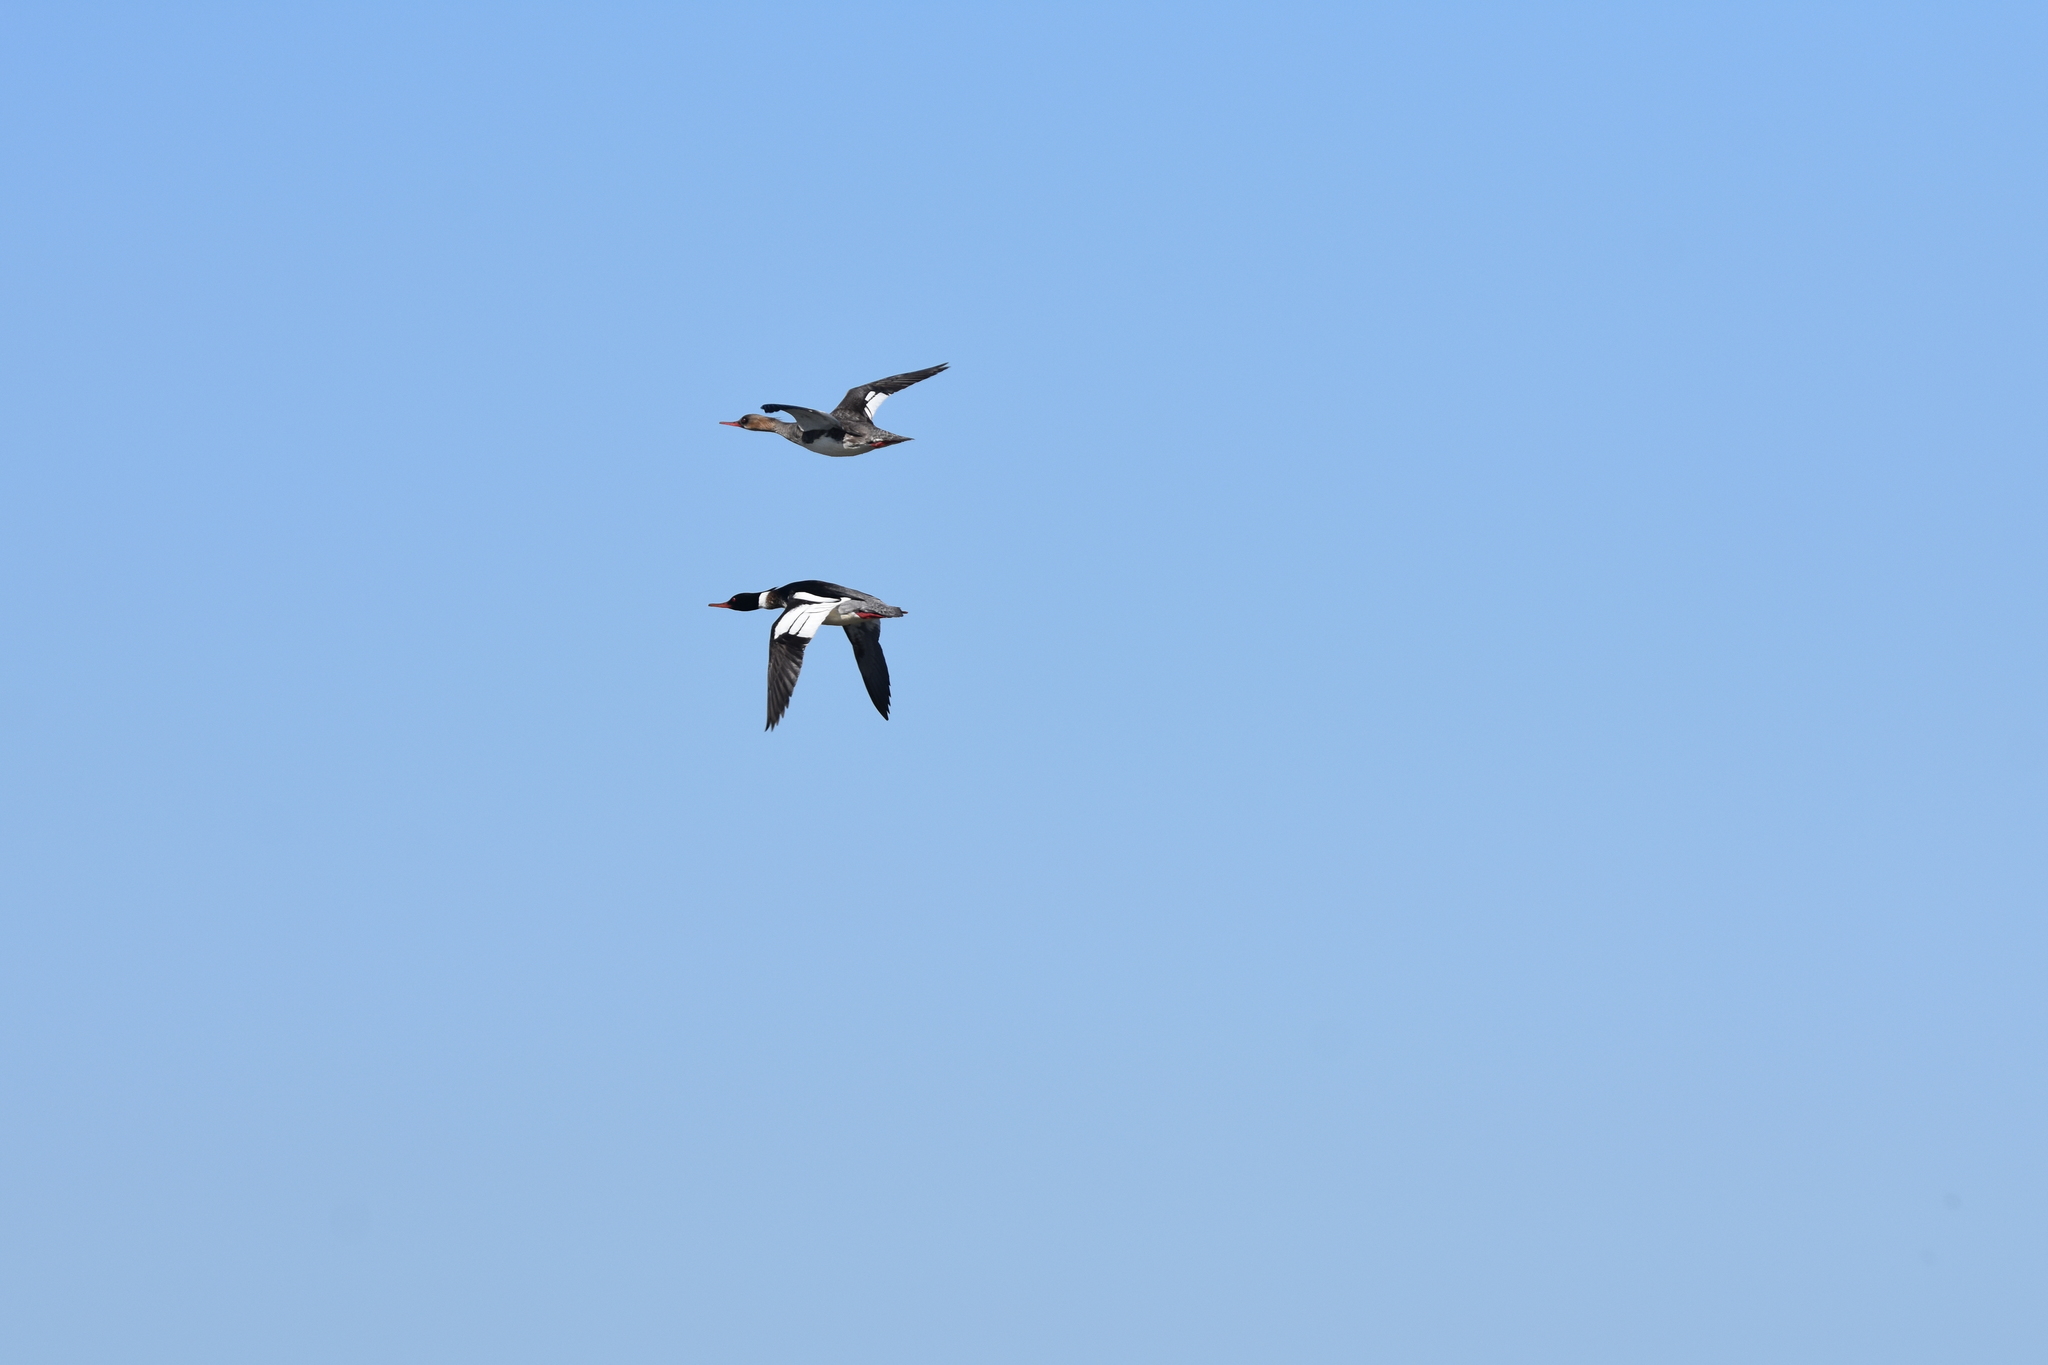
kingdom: Animalia
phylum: Chordata
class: Aves
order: Anseriformes
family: Anatidae
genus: Mergus
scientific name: Mergus serrator
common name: Red-breasted merganser
